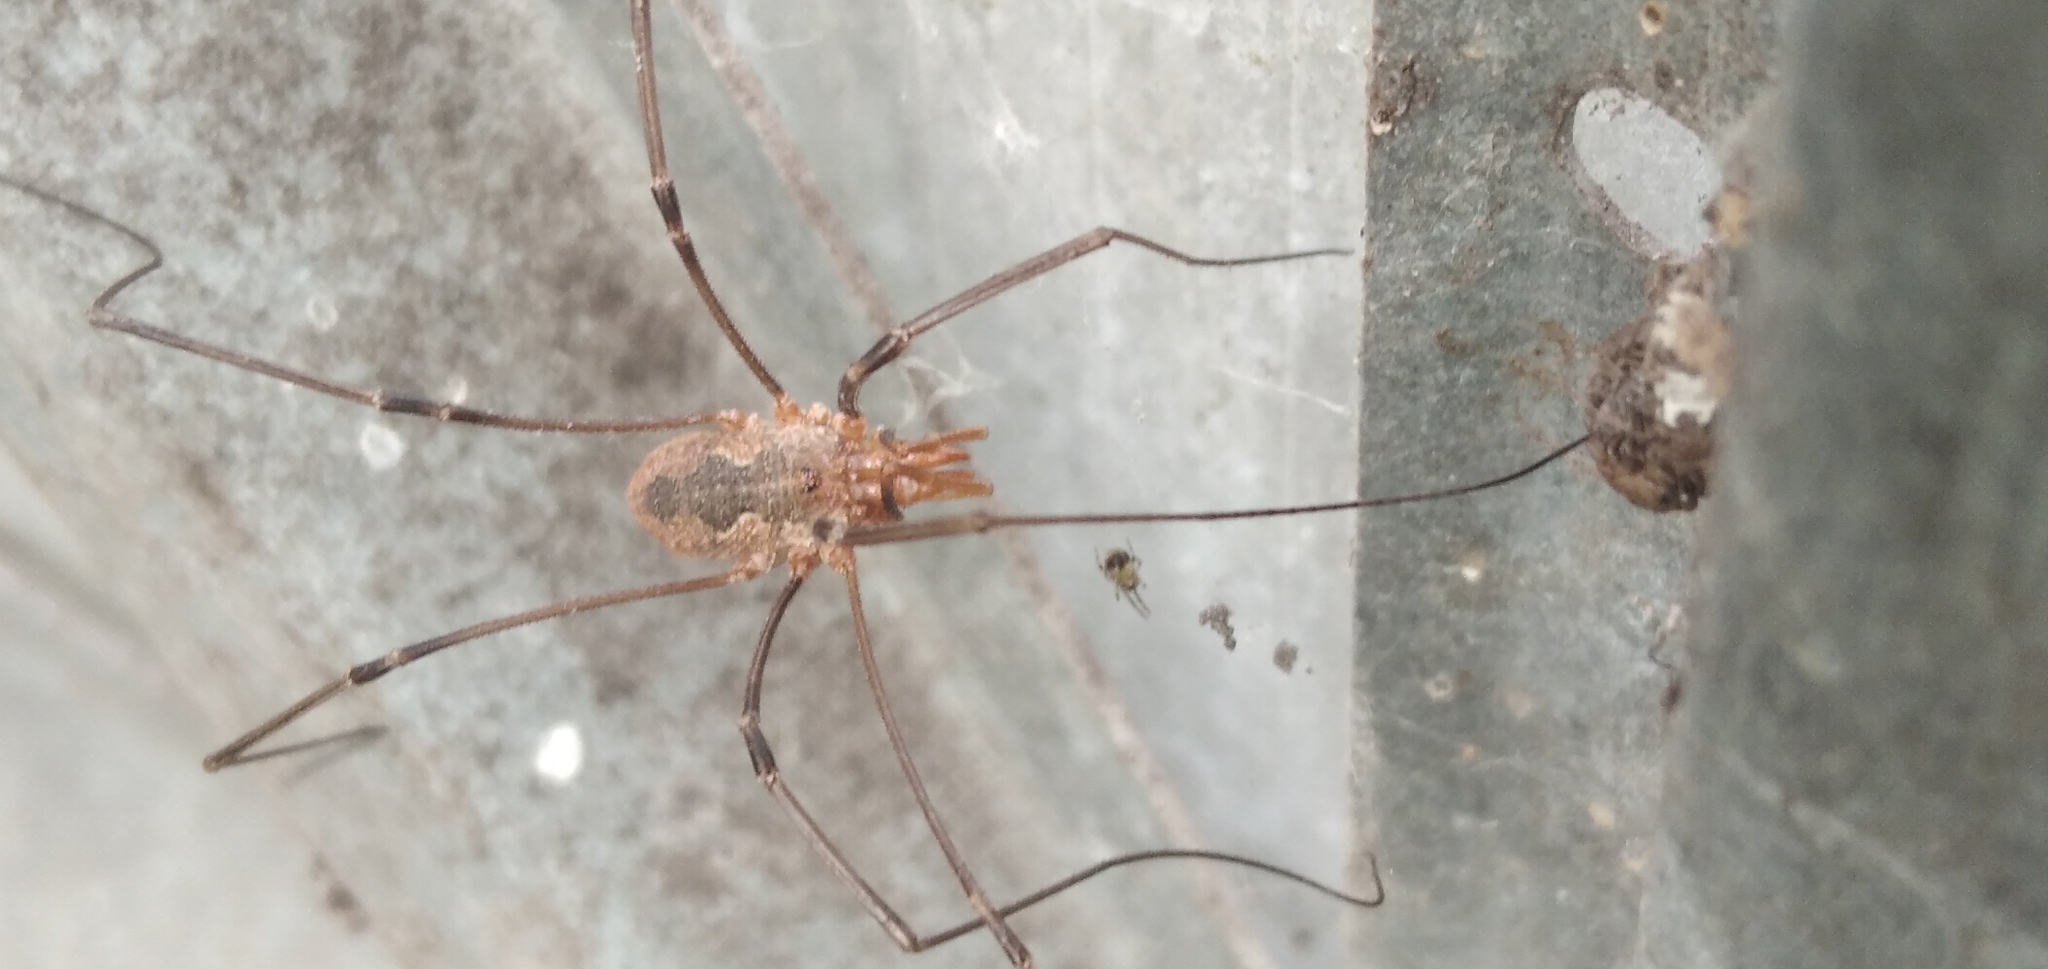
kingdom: Animalia
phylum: Arthropoda
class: Arachnida
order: Opiliones
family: Phalangiidae
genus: Phalangium
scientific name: Phalangium opilio
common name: Daddy longleg
